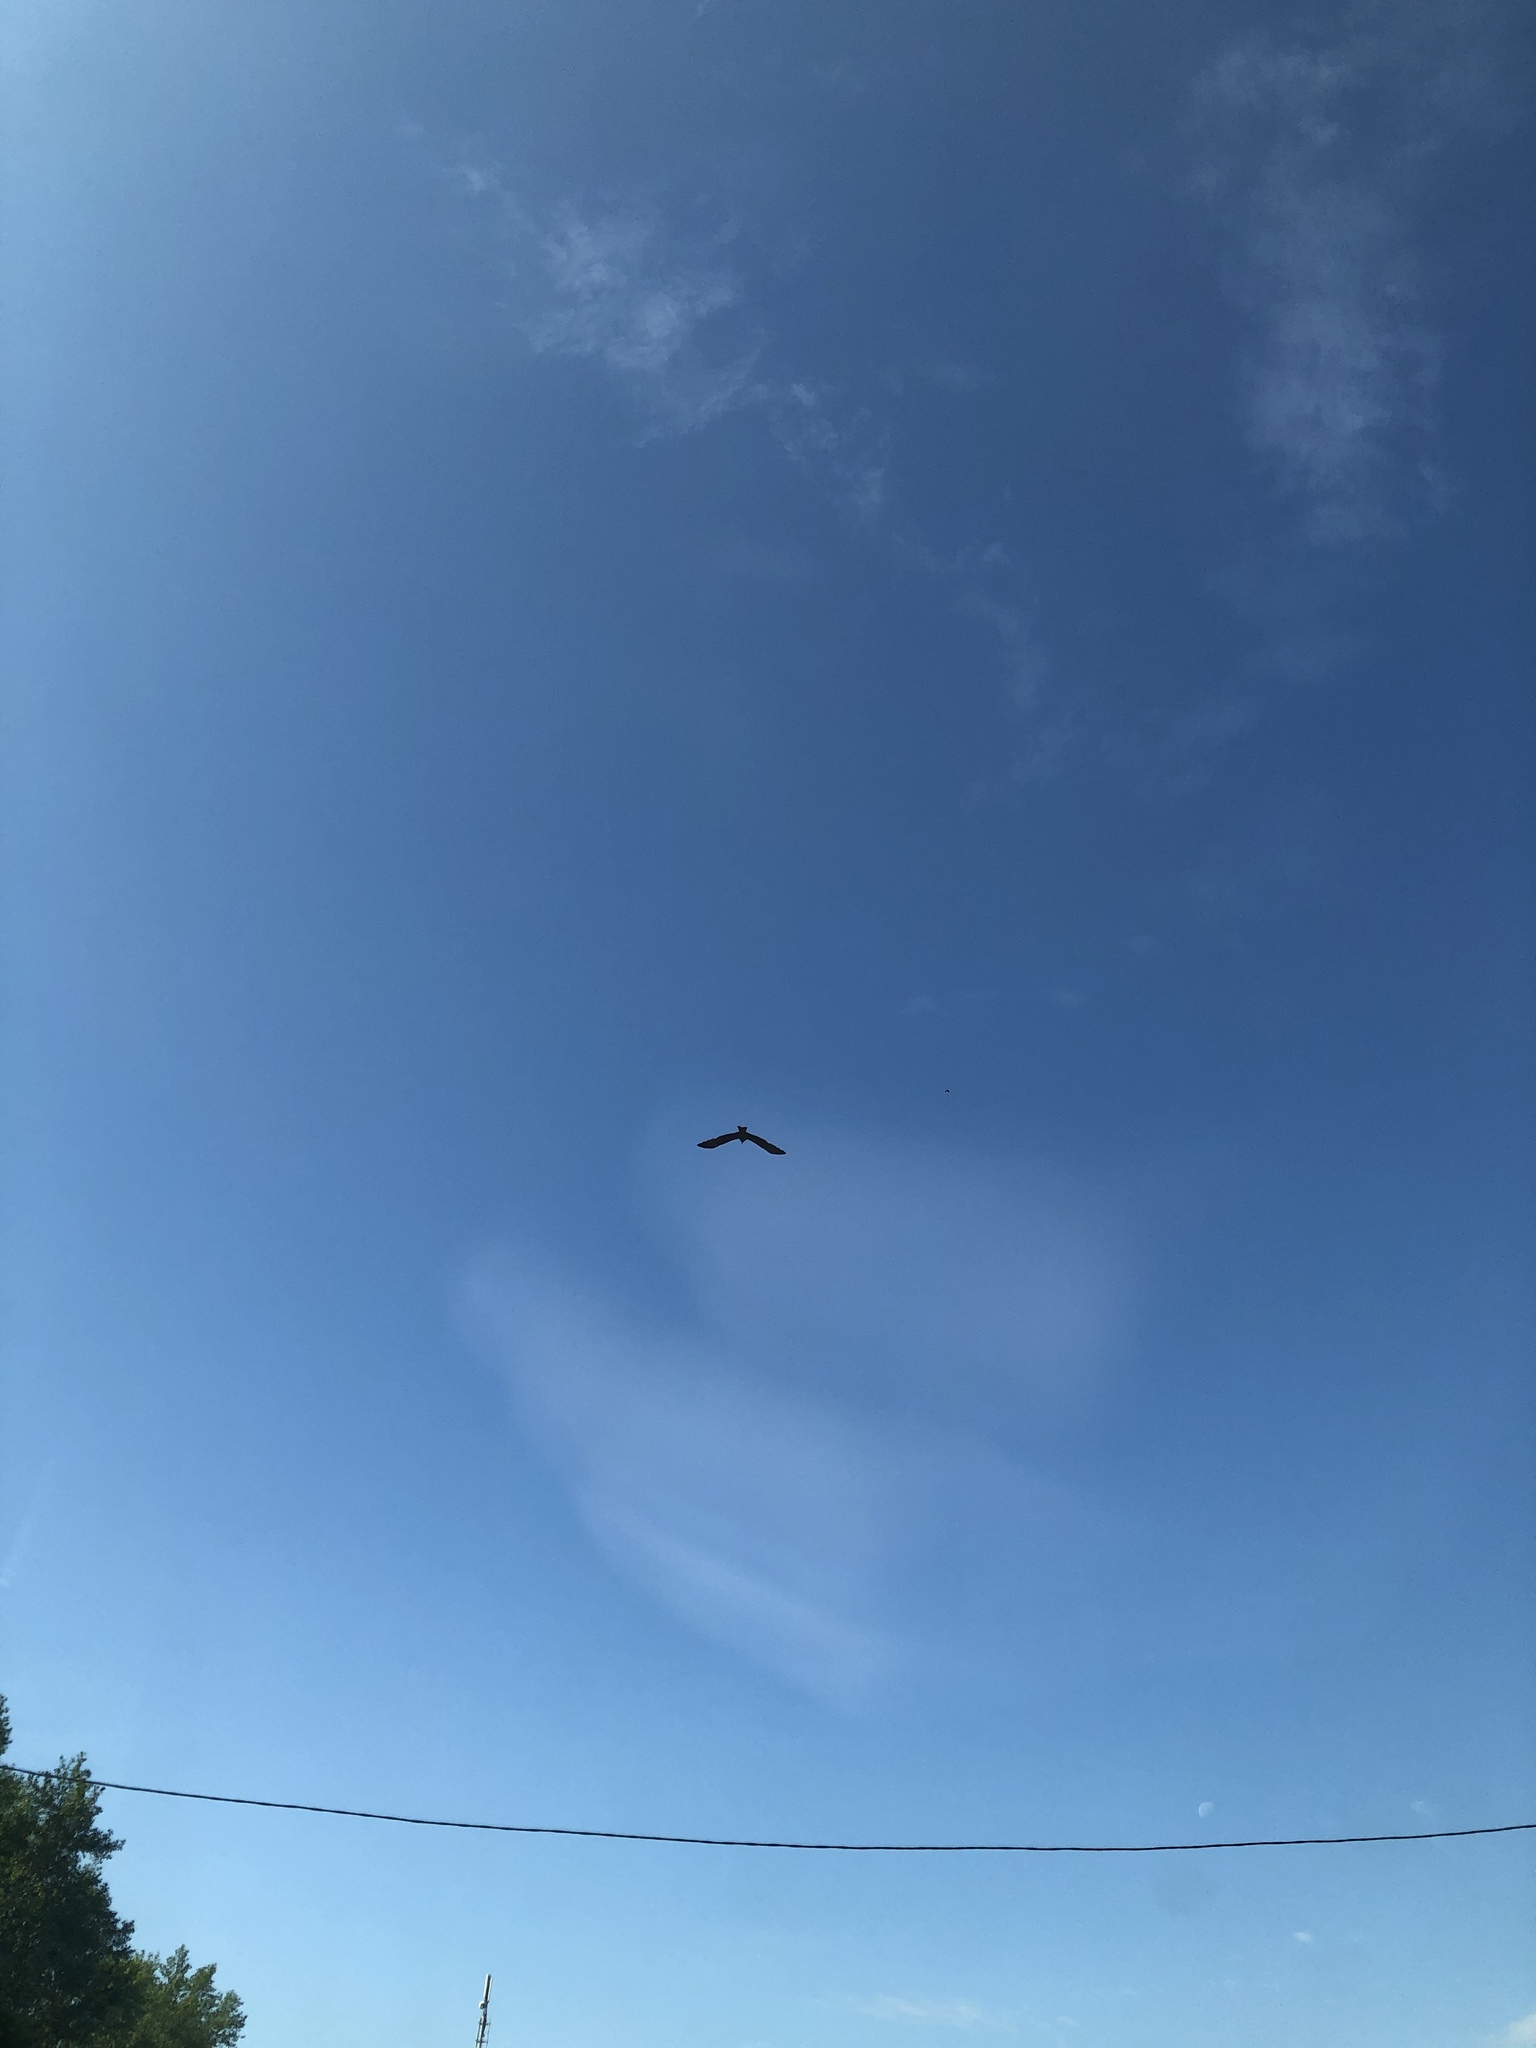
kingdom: Animalia
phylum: Chordata
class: Aves
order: Accipitriformes
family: Accipitridae
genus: Milvus
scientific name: Milvus migrans
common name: Black kite
